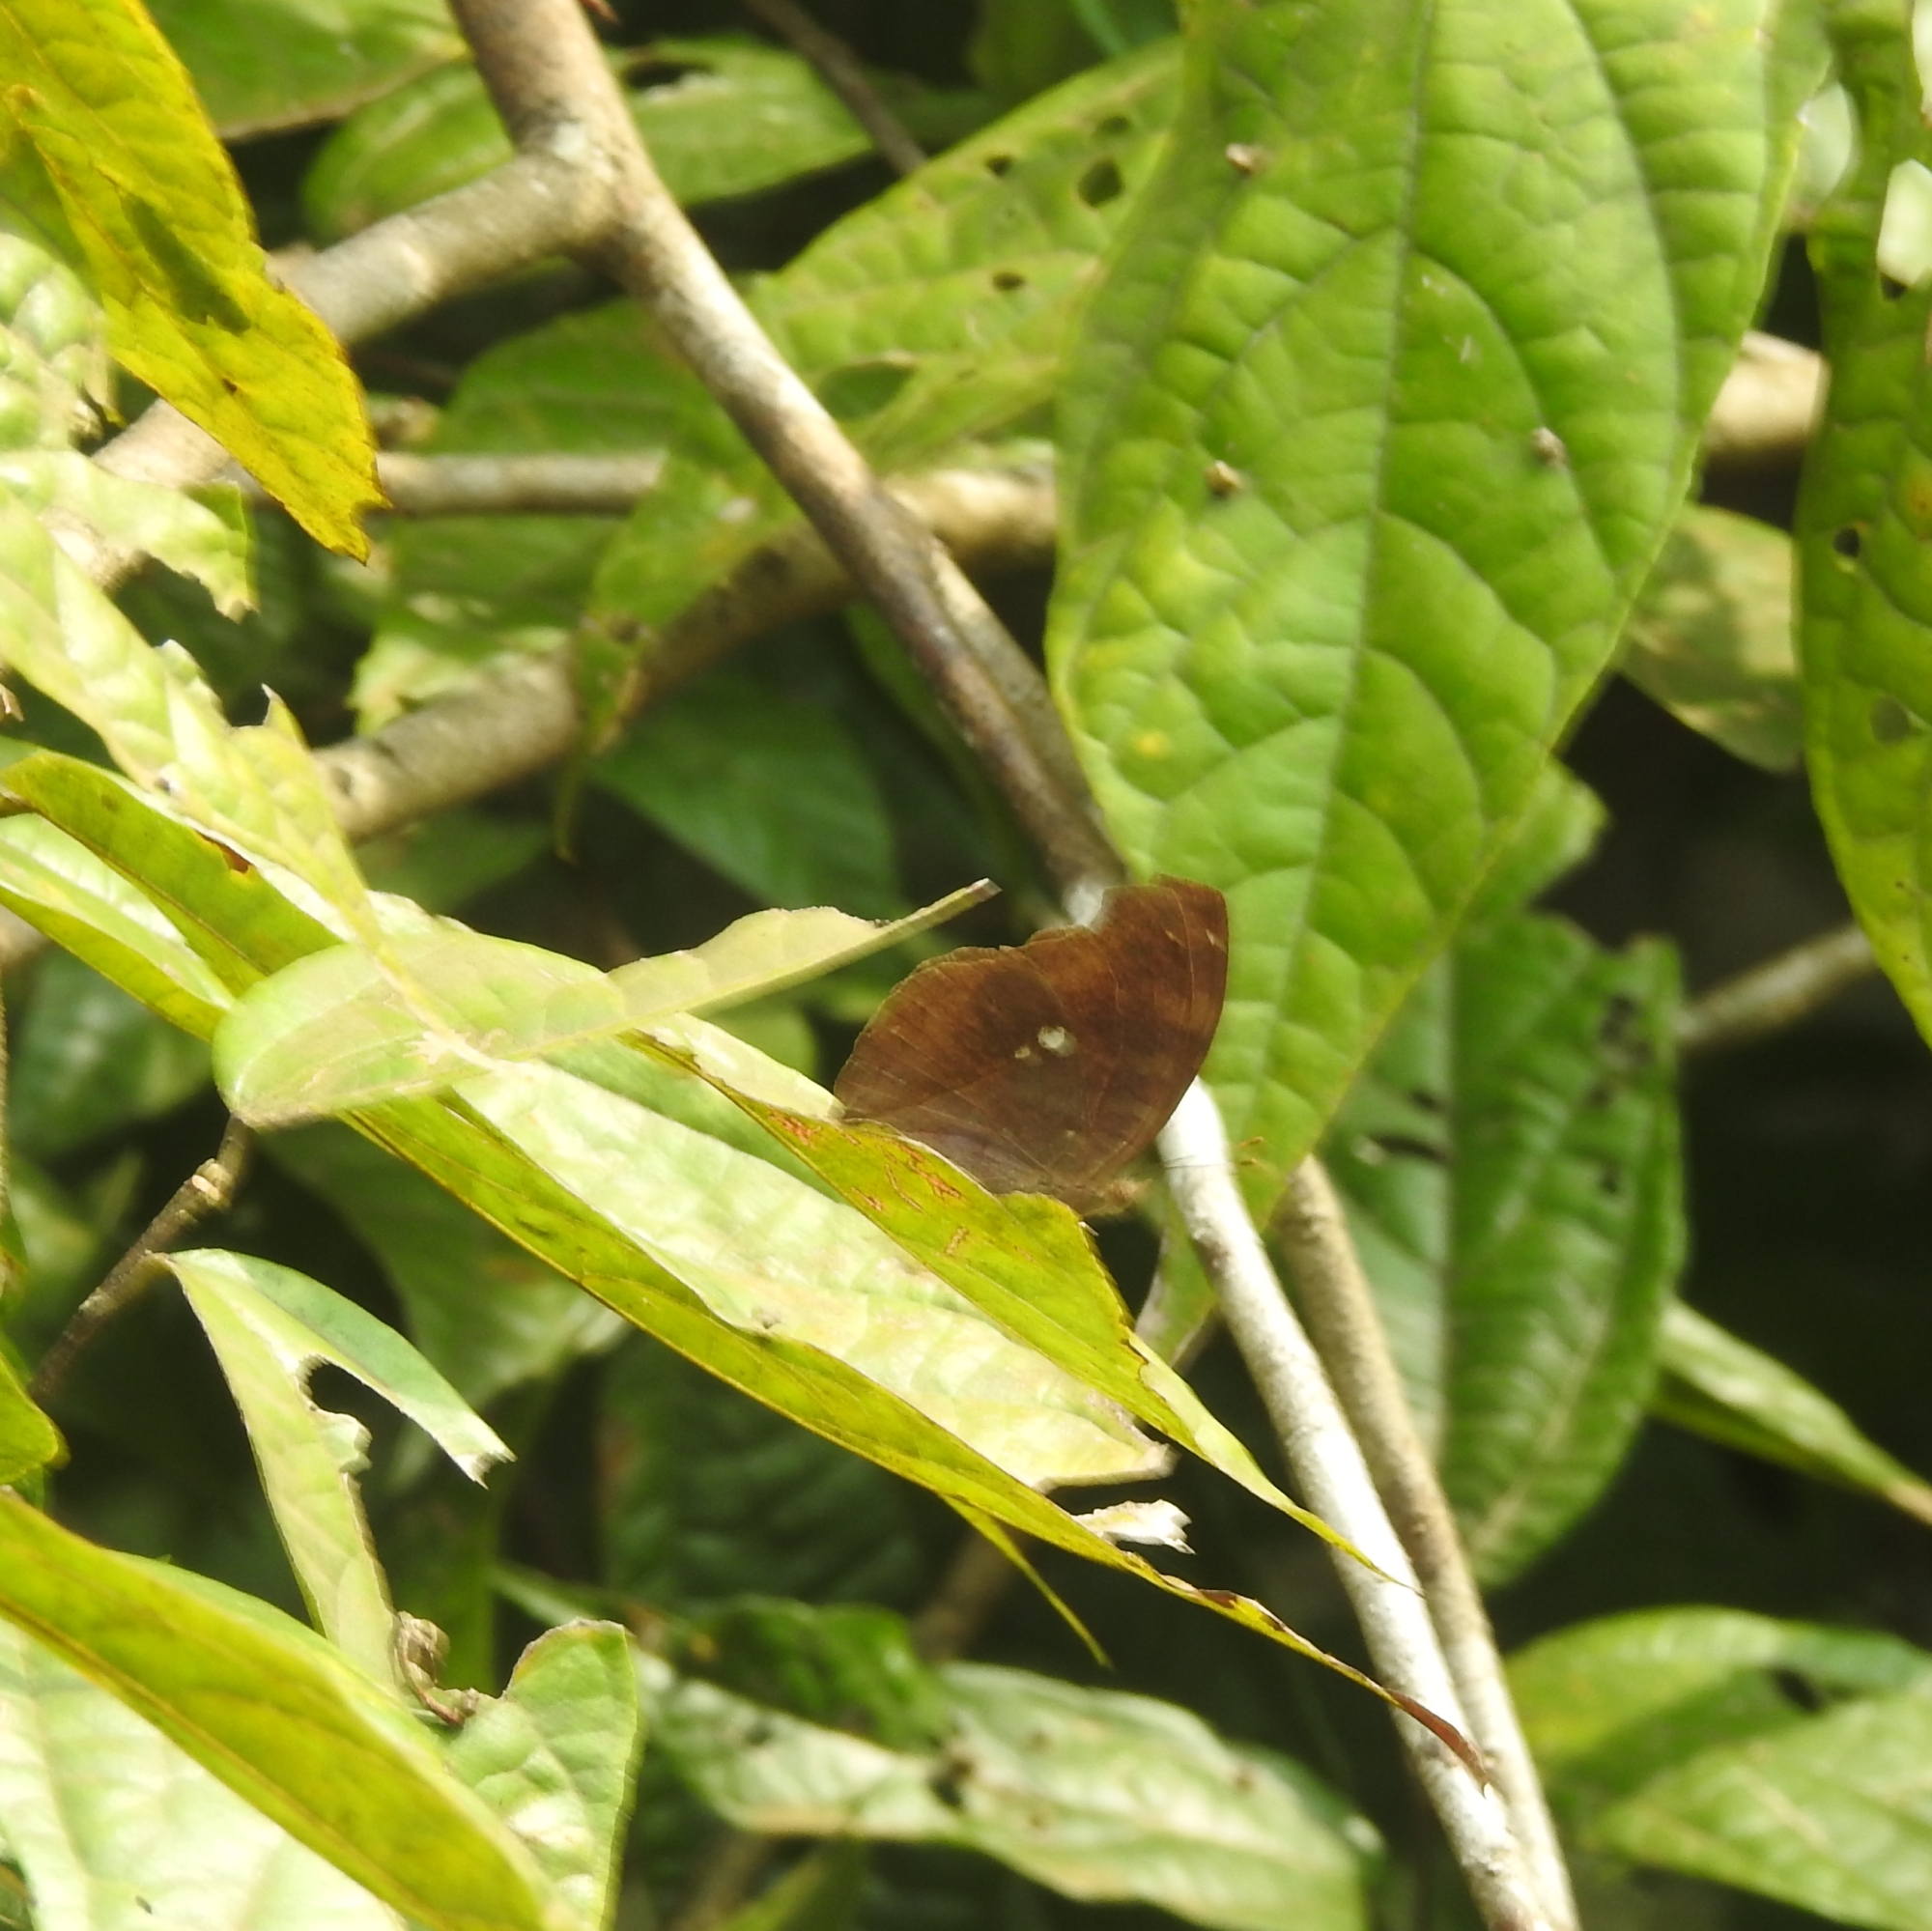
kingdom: Animalia
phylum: Arthropoda
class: Insecta
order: Lepidoptera
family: Nymphalidae
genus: Junonia
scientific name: Junonia iphita
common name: Chocolate pansy
